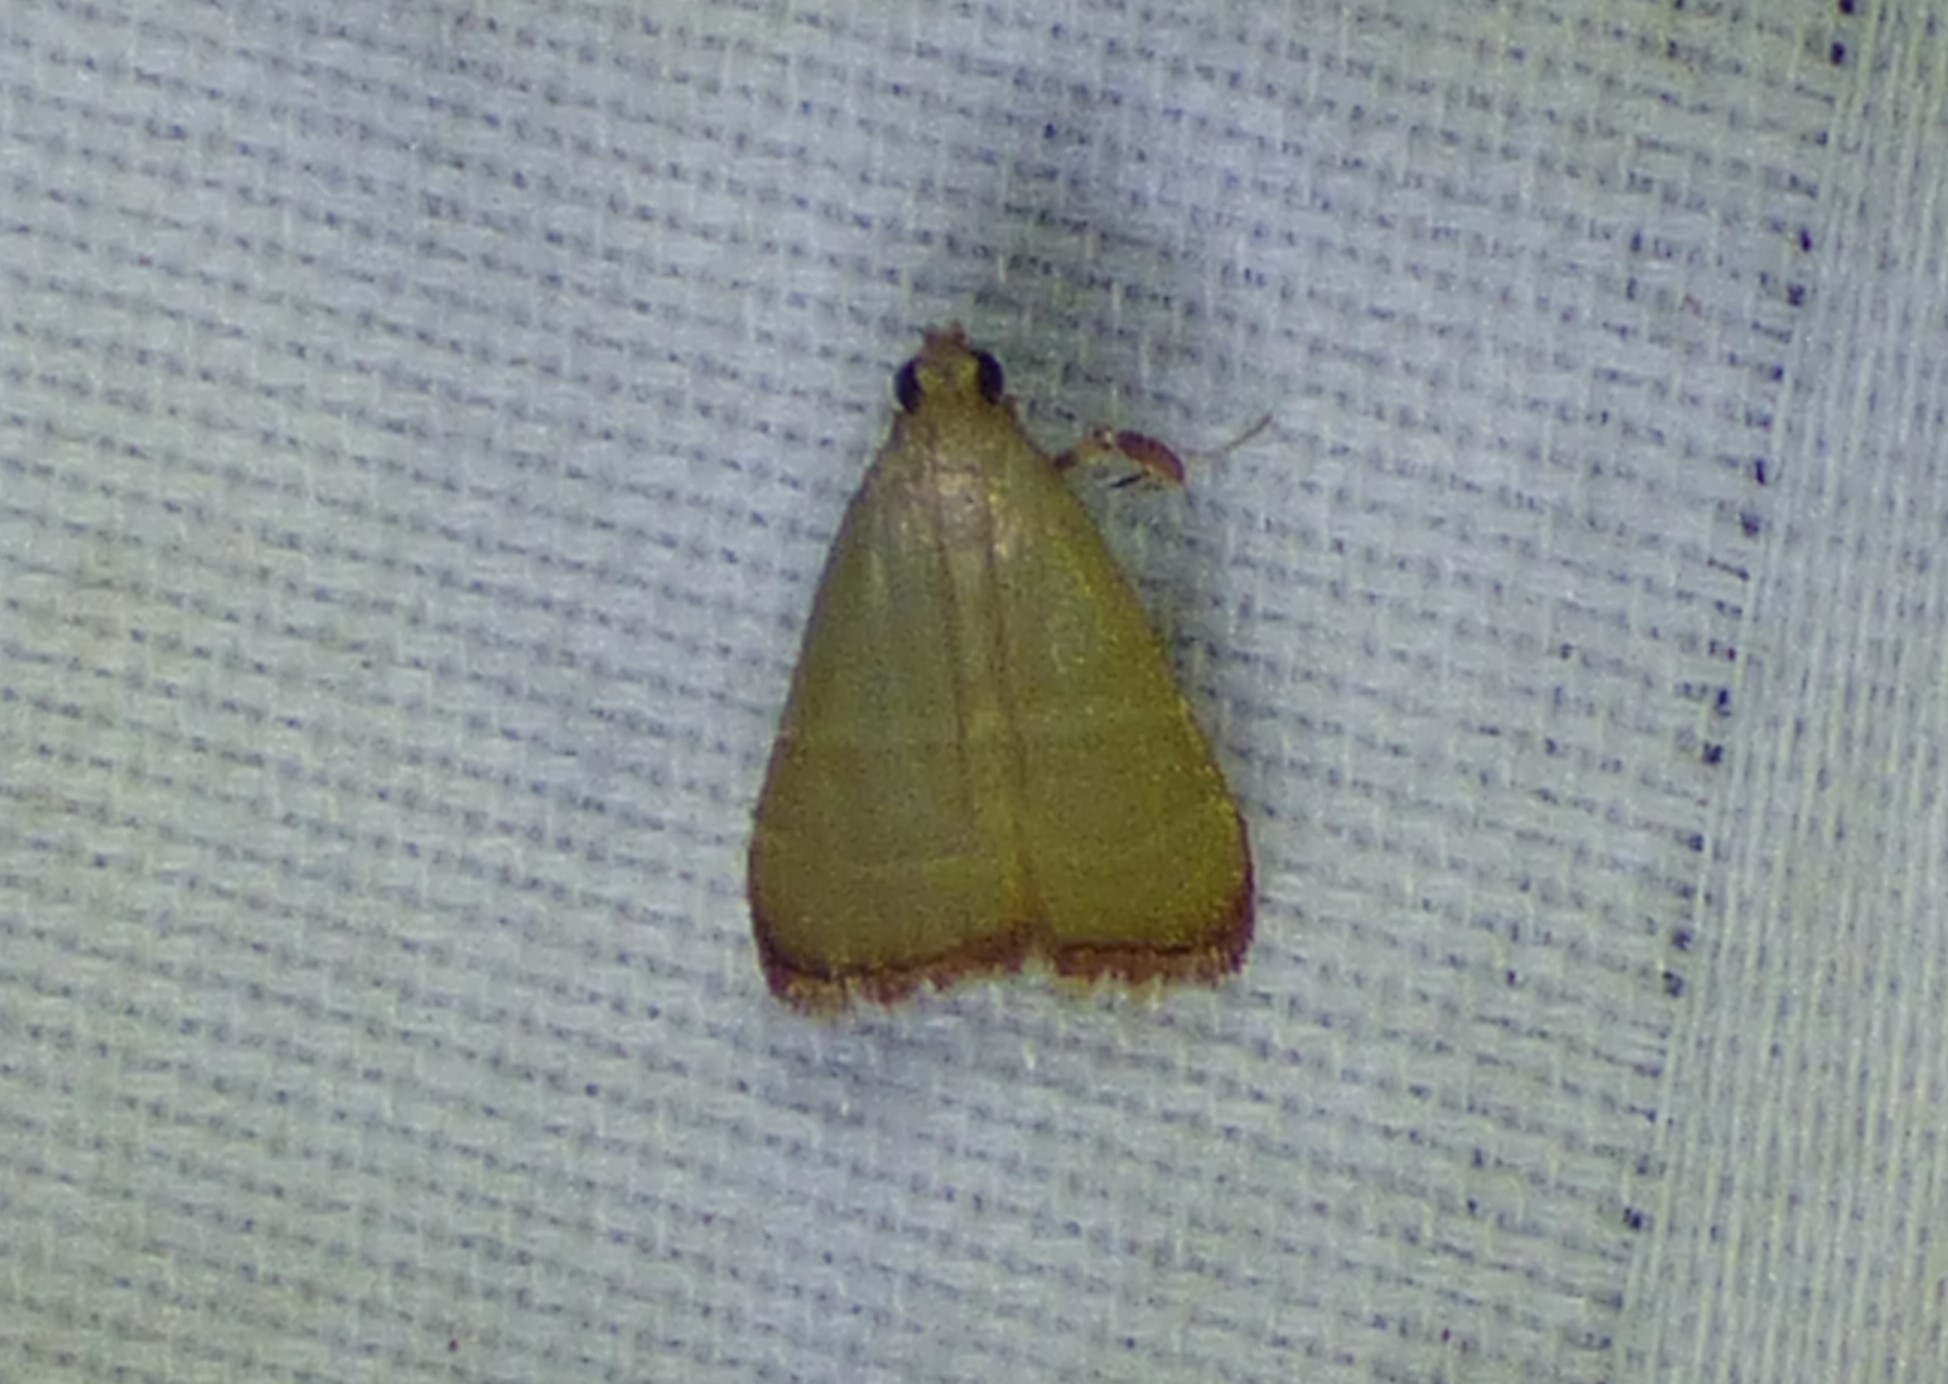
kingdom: Animalia
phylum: Arthropoda
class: Insecta
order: Lepidoptera
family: Pyralidae
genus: Arta
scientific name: Arta olivalis
